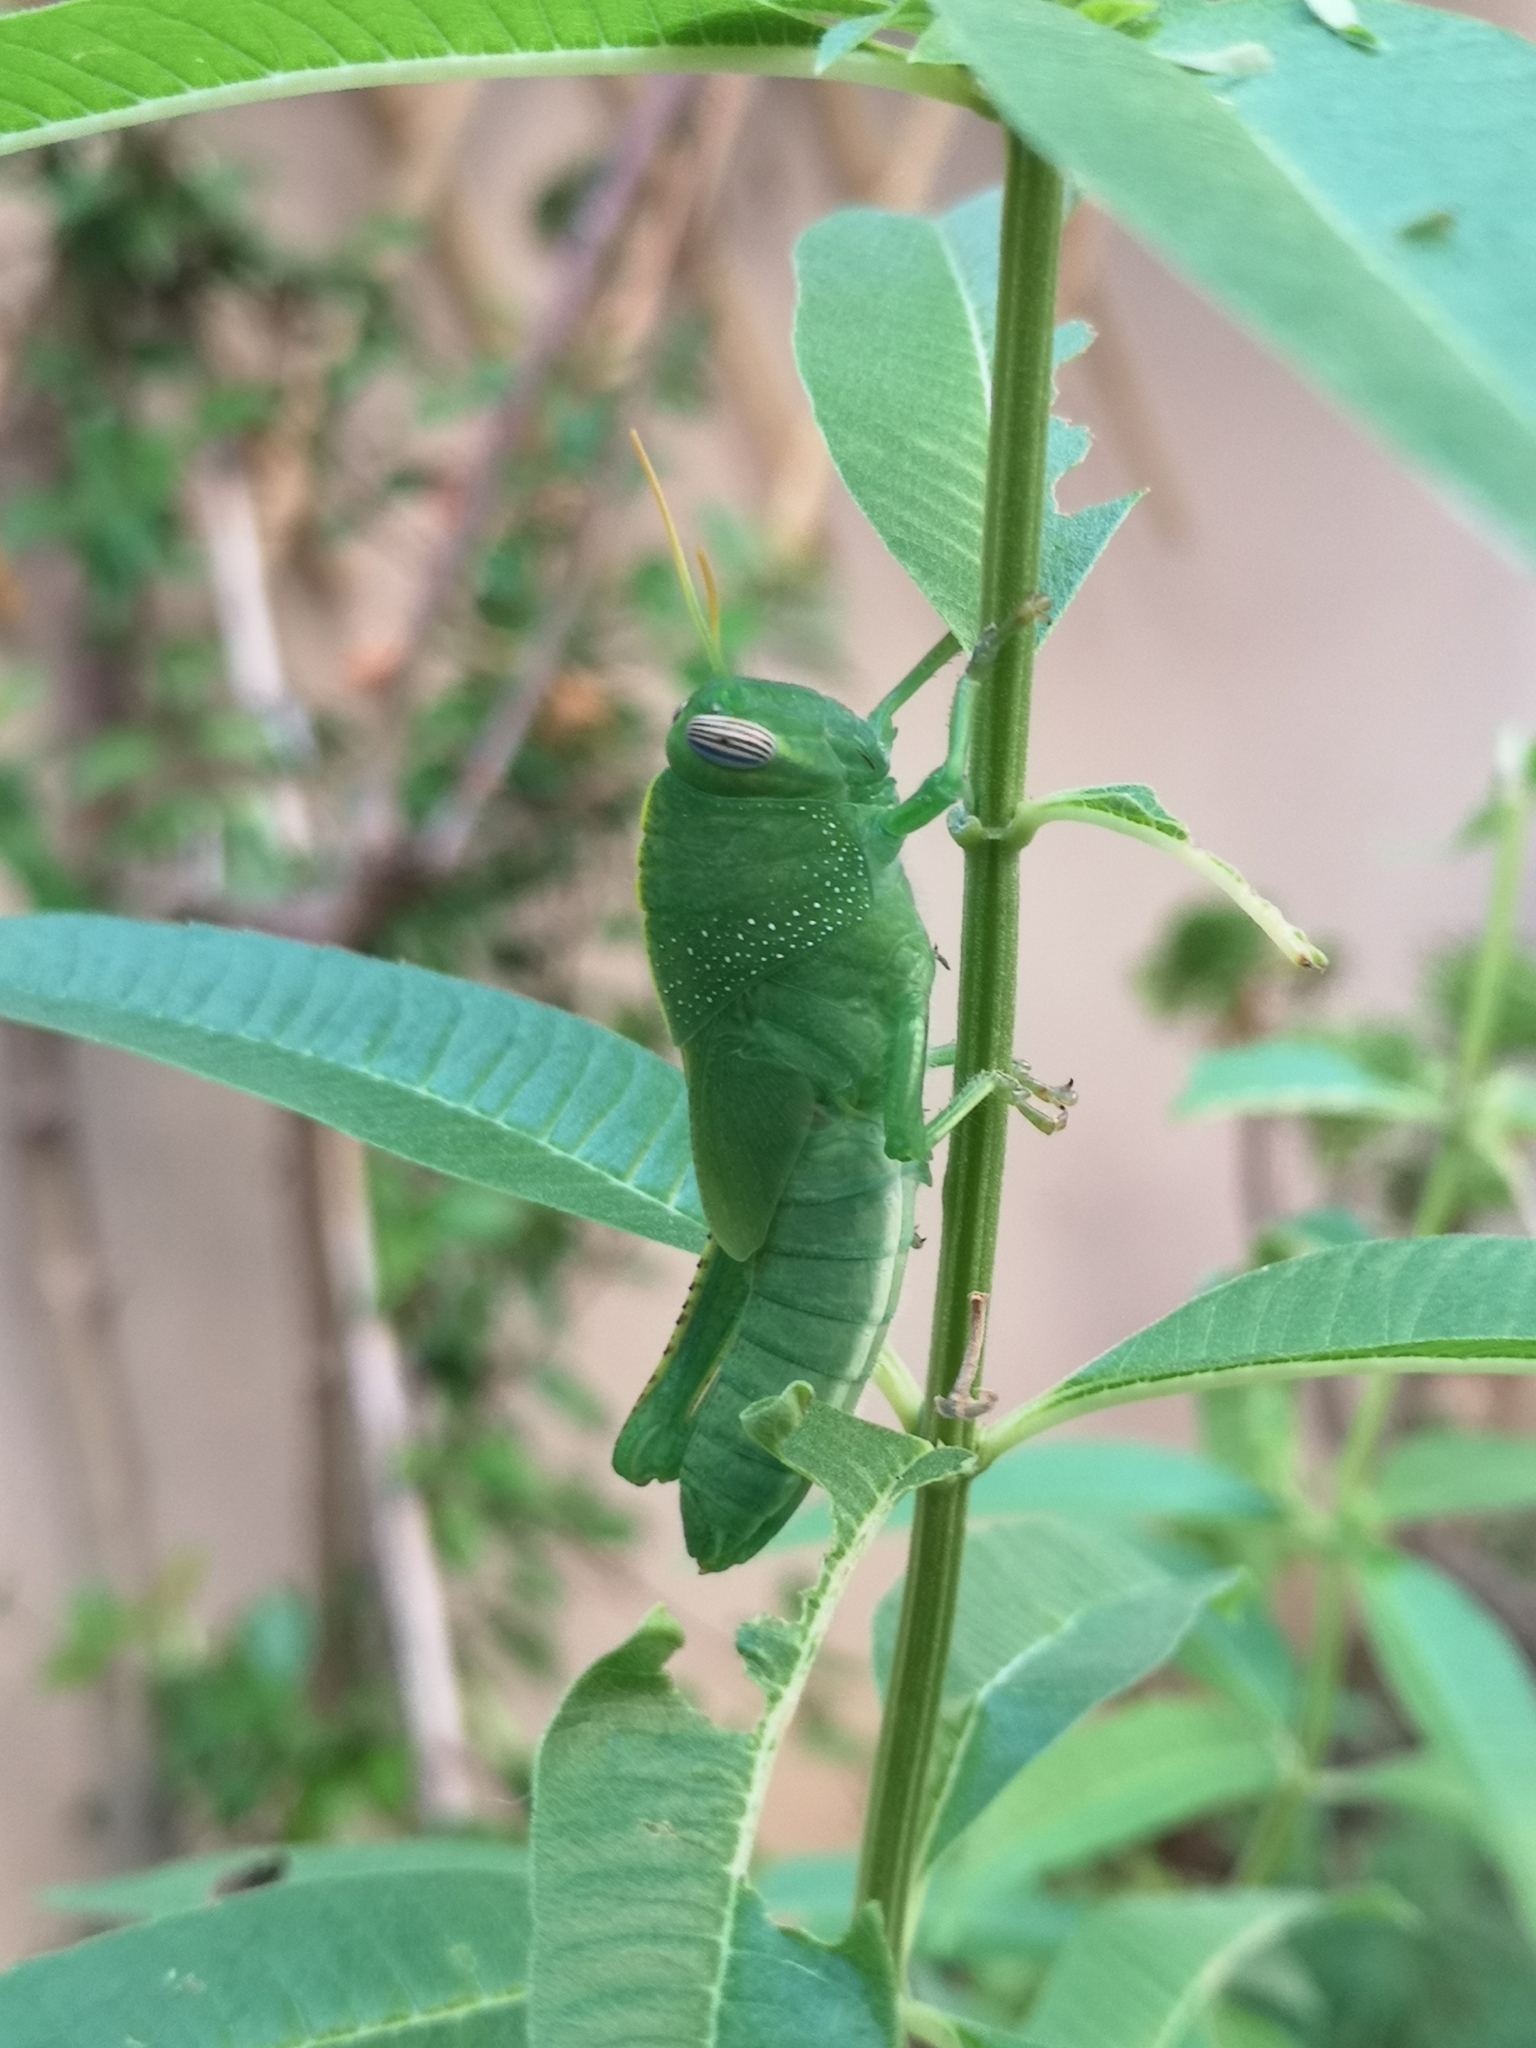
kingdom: Animalia
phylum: Arthropoda
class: Insecta
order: Orthoptera
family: Acrididae
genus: Anacridium
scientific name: Anacridium aegyptium
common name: Egyptian grasshopper
